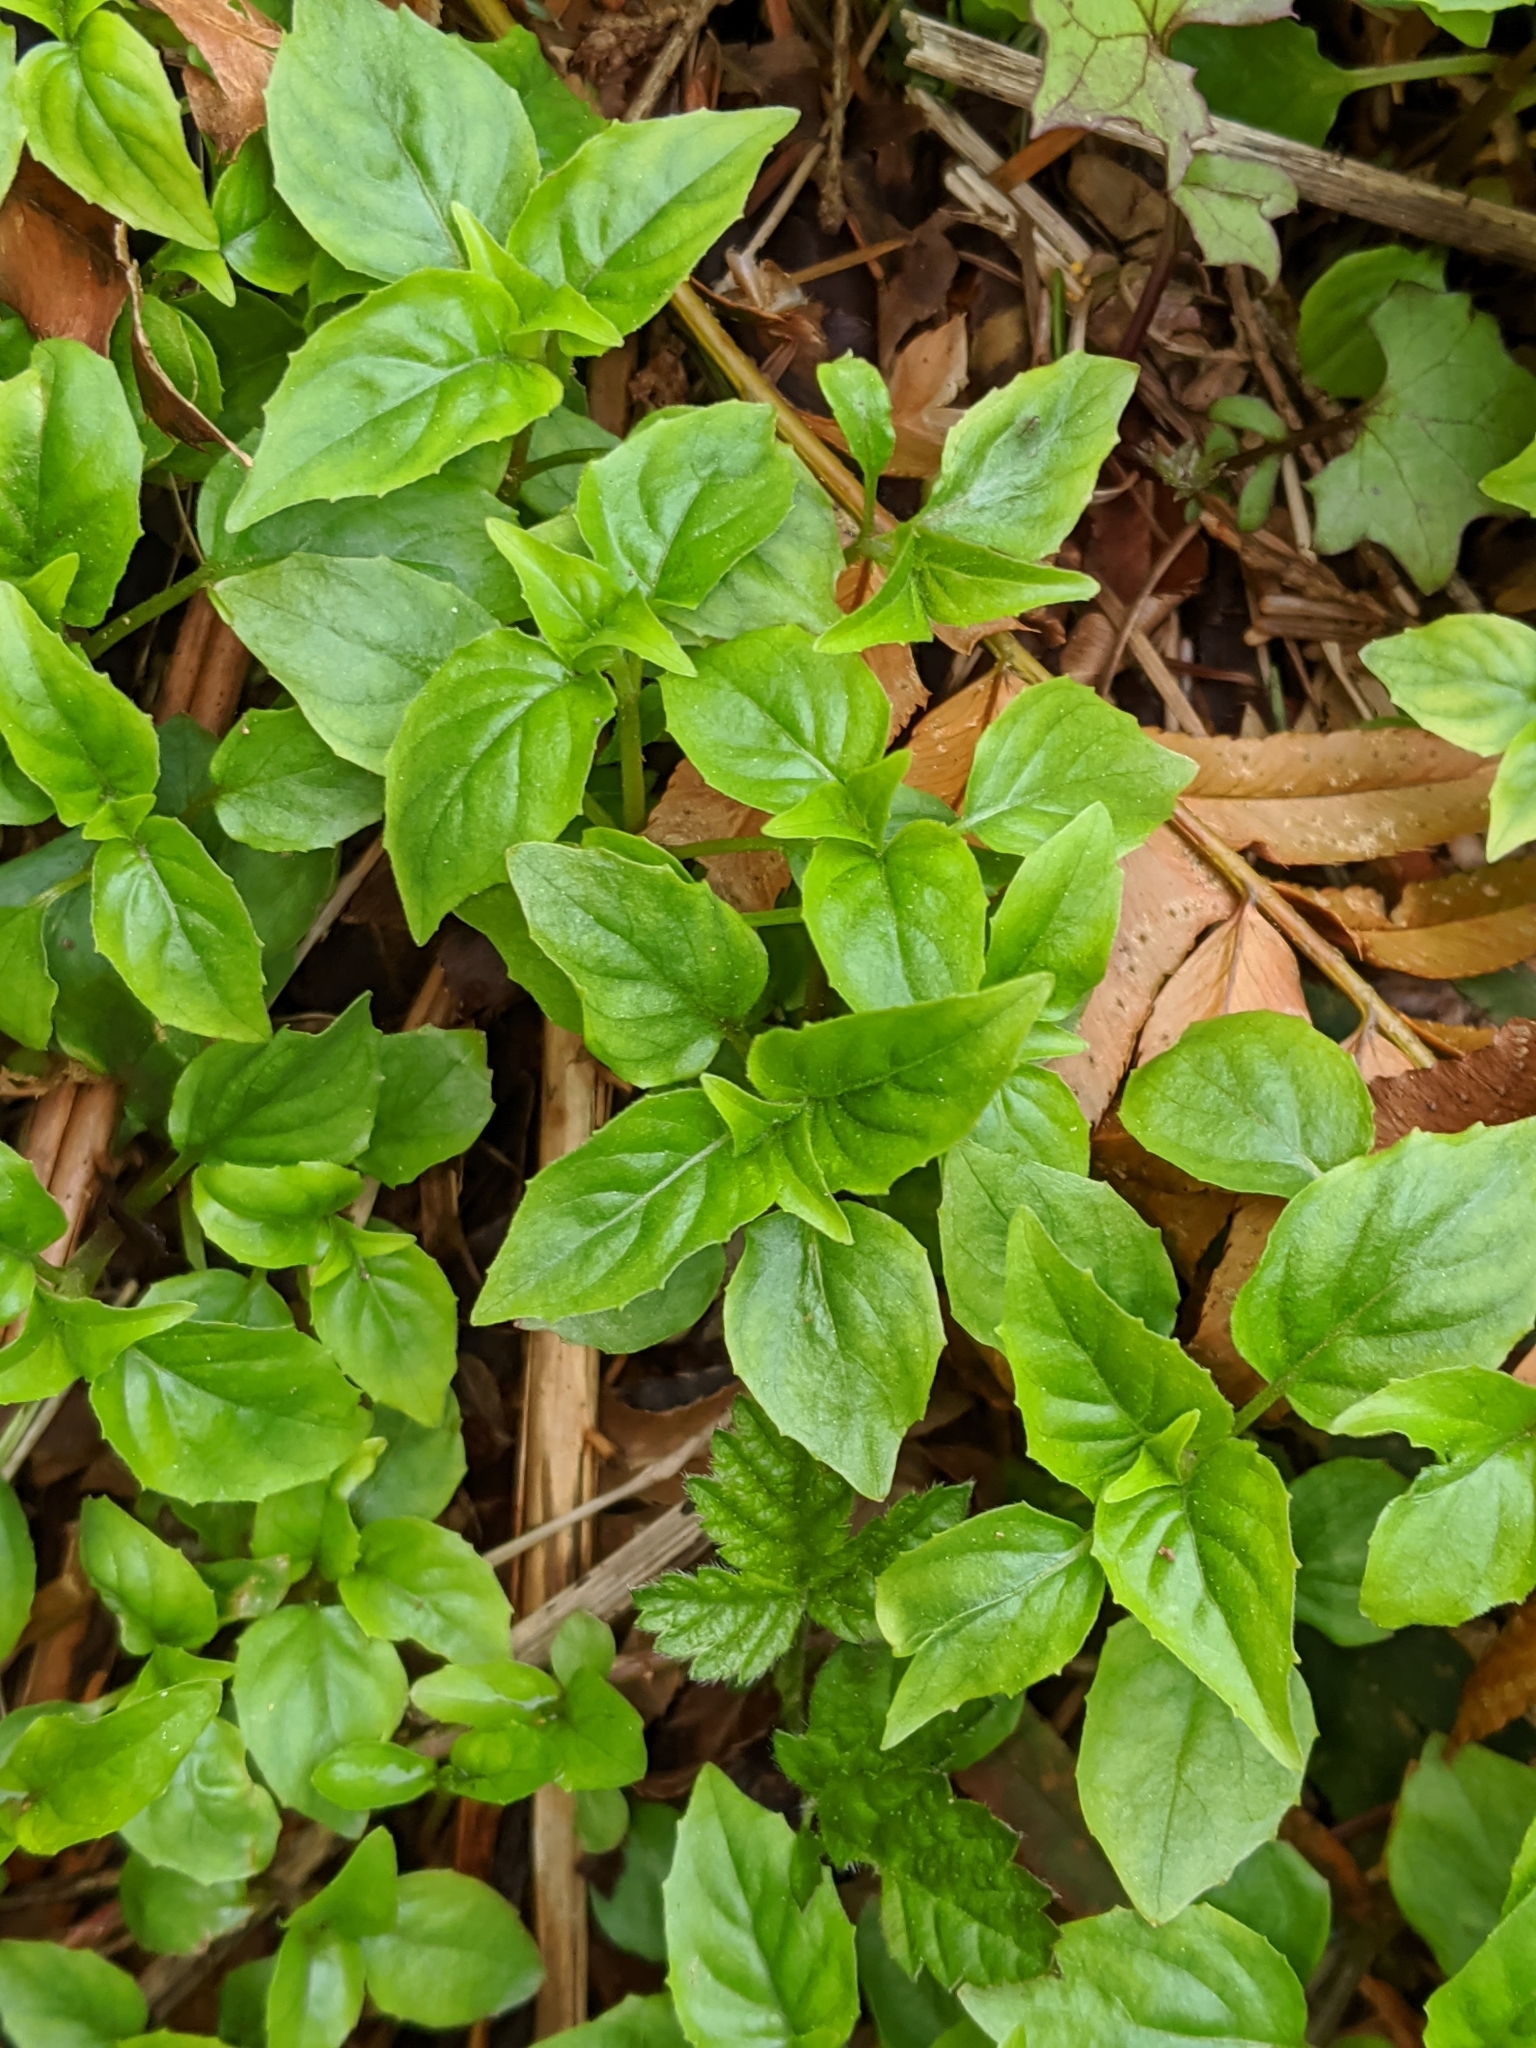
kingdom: Plantae
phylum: Tracheophyta
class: Magnoliopsida
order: Myrtales
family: Onagraceae
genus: Circaea
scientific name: Circaea alpina
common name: Alpine enchanter's-nightshade
